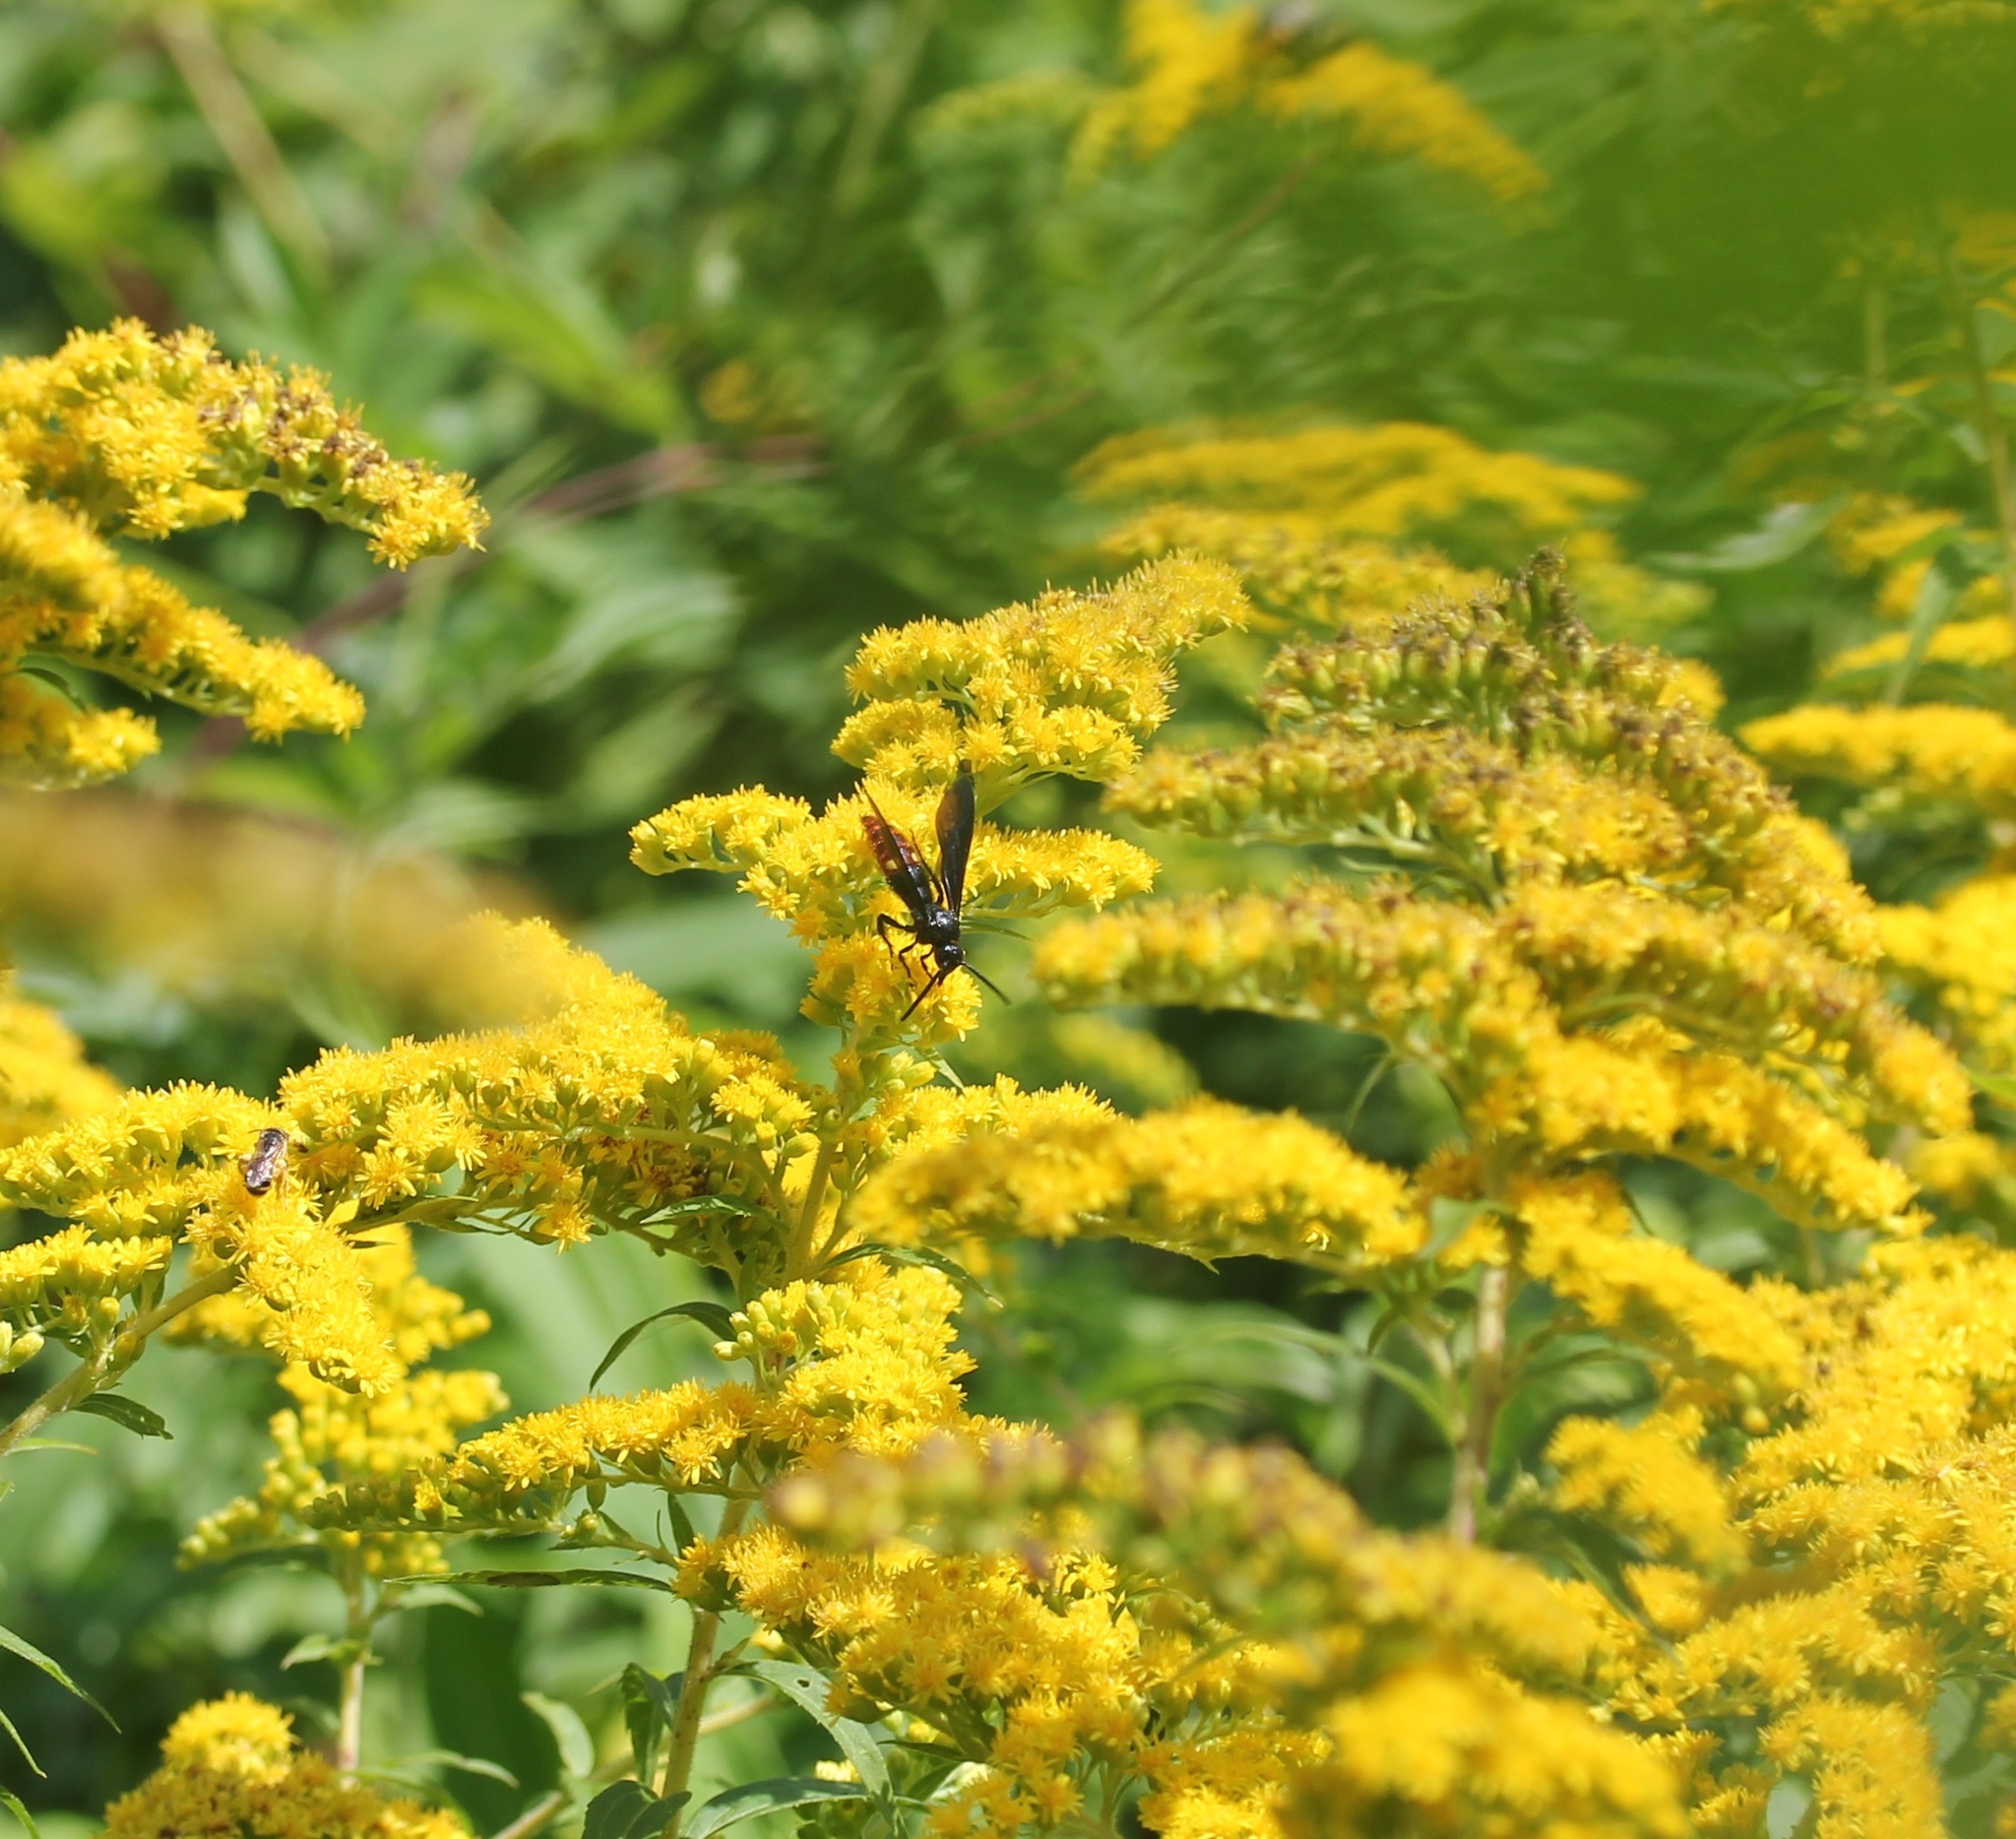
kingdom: Animalia
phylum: Arthropoda
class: Insecta
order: Hymenoptera
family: Scoliidae
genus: Scolia
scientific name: Scolia dubia
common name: Blue-winged scoliid wasp
